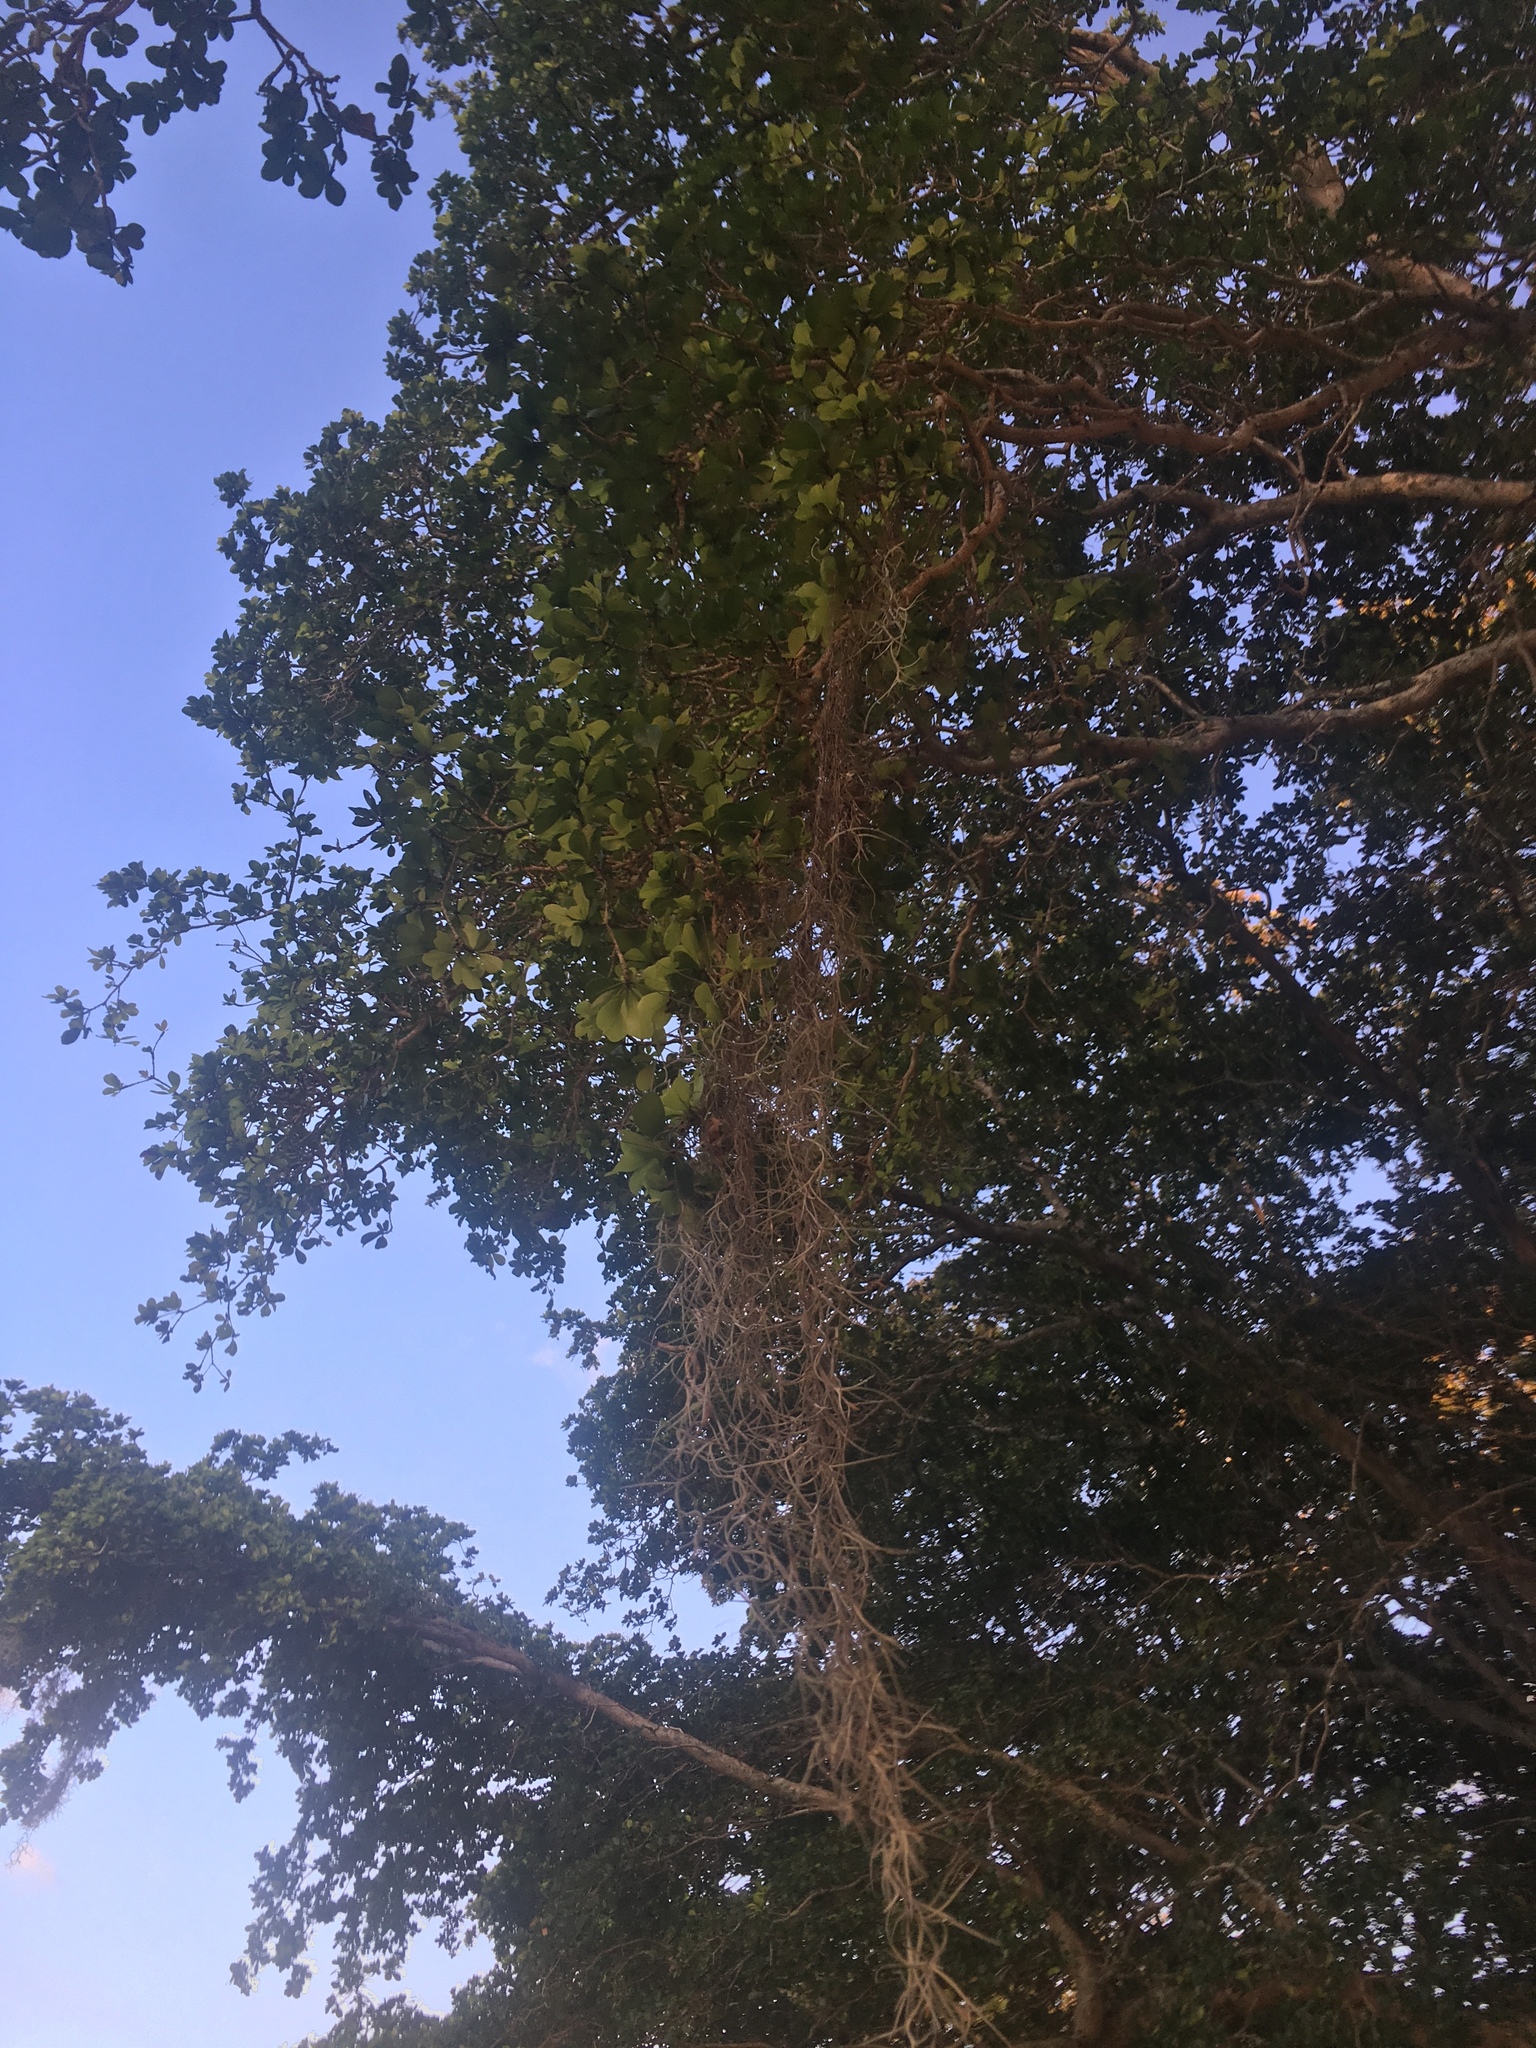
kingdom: Plantae
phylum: Tracheophyta
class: Liliopsida
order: Poales
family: Bromeliaceae
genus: Tillandsia
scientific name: Tillandsia usneoides
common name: Spanish moss
